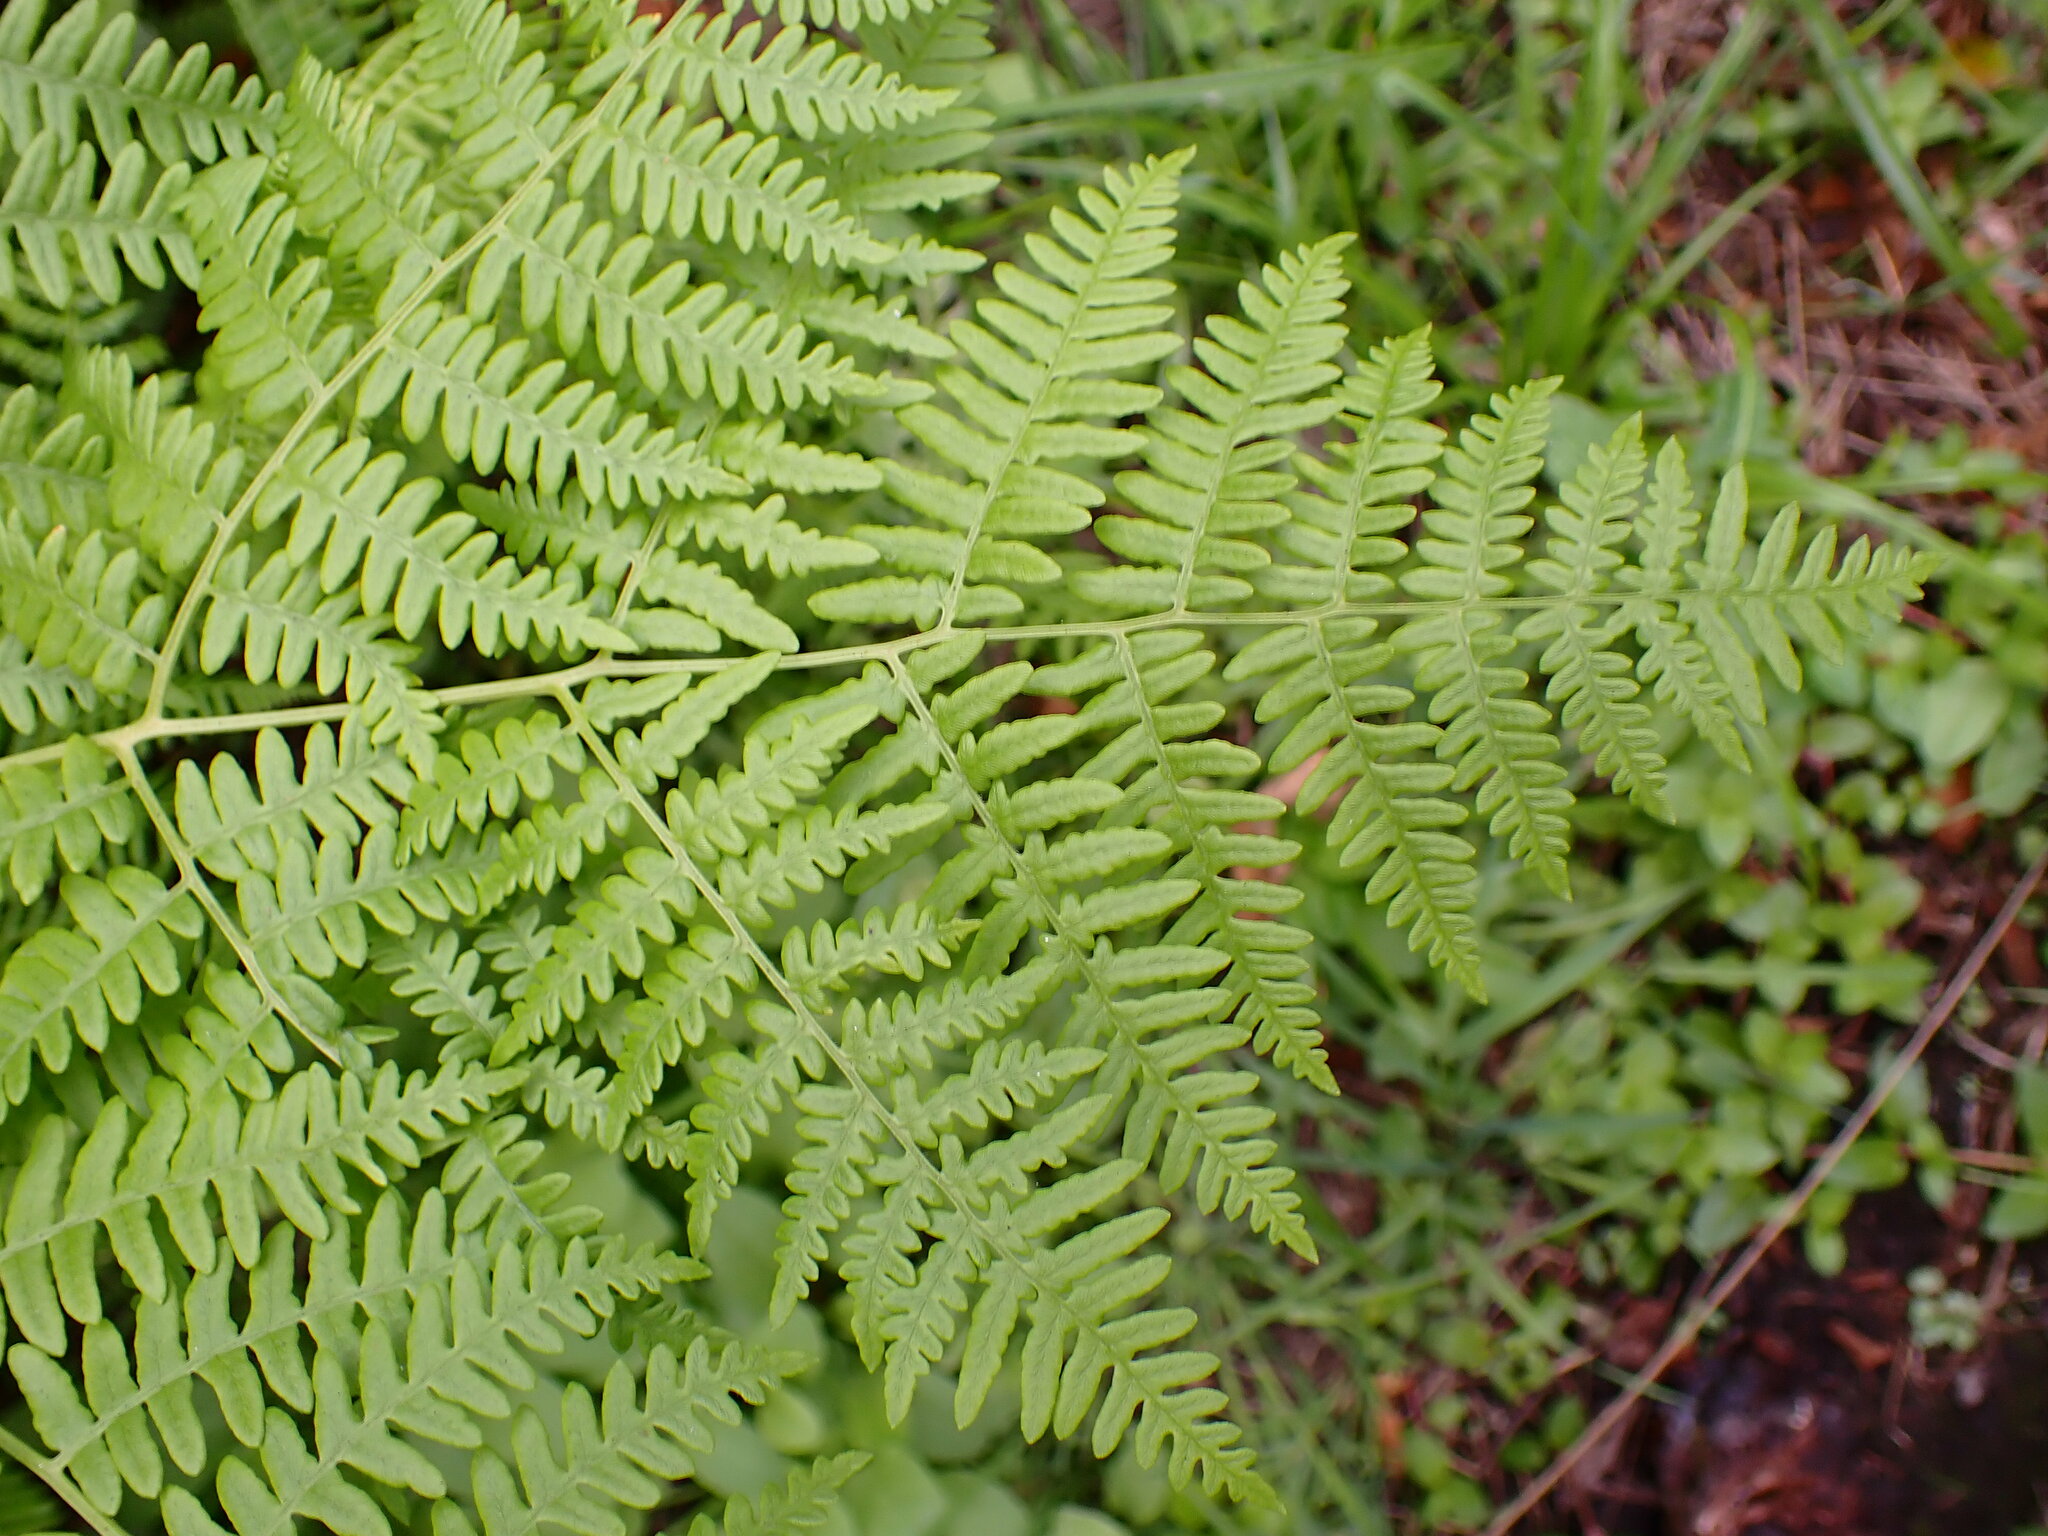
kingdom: Plantae
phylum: Tracheophyta
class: Polypodiopsida
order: Polypodiales
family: Dennstaedtiaceae
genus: Pteridium
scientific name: Pteridium aquilinum
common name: Bracken
